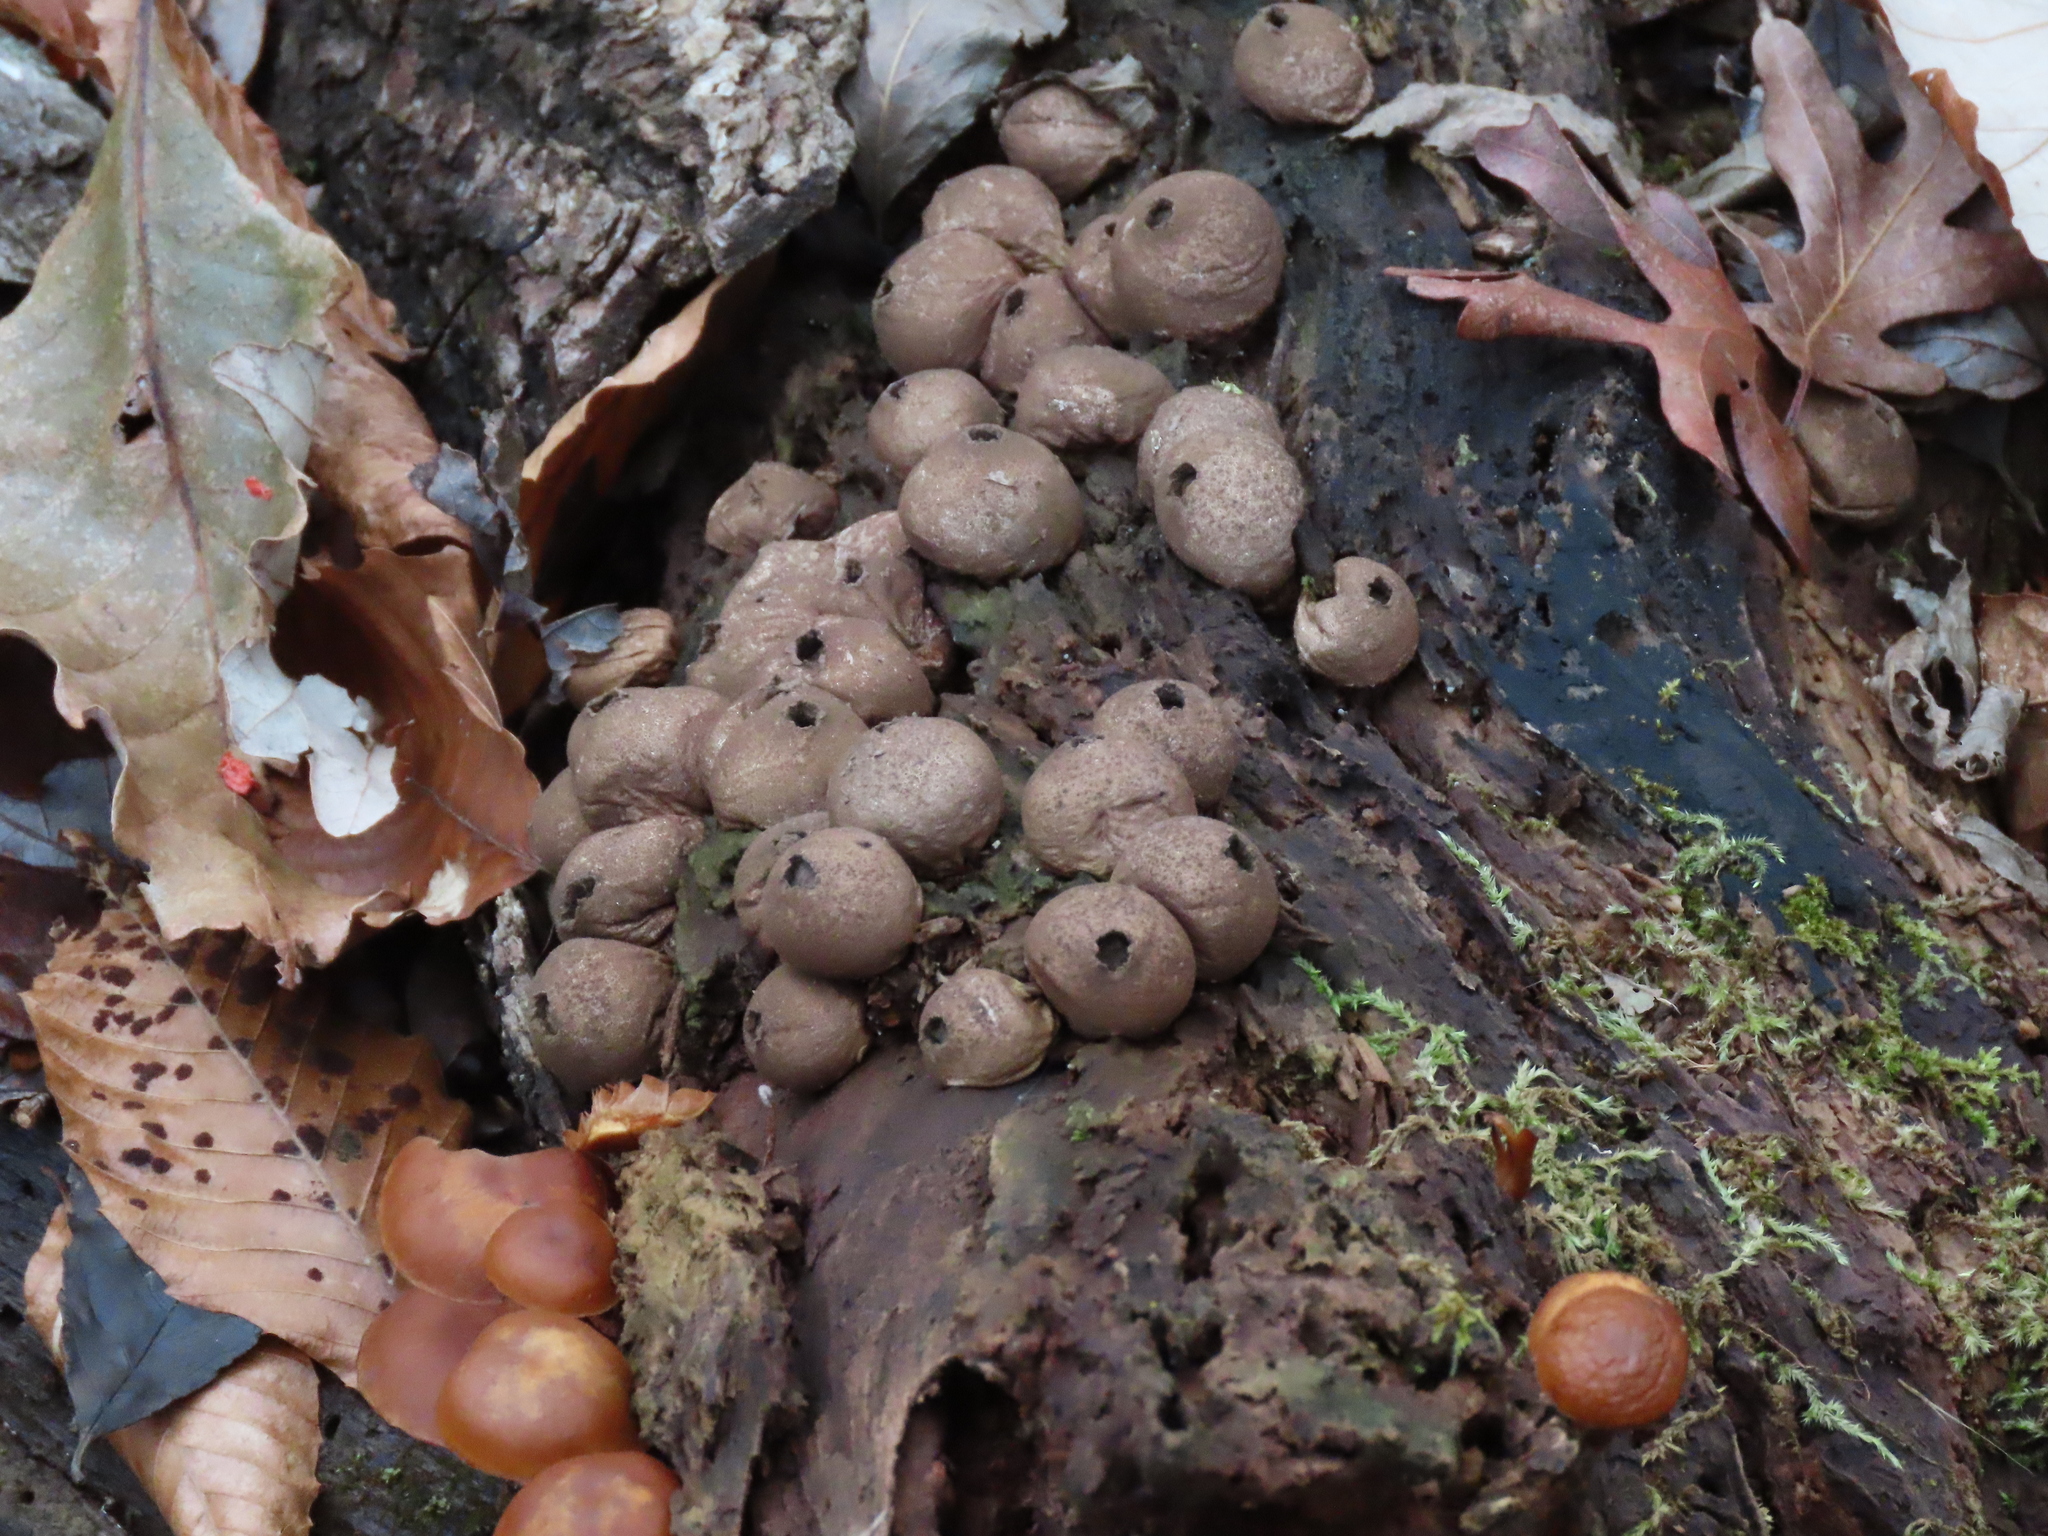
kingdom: Fungi
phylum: Basidiomycota
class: Agaricomycetes
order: Agaricales
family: Lycoperdaceae
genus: Apioperdon
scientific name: Apioperdon pyriforme
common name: Pear-shaped puffball
